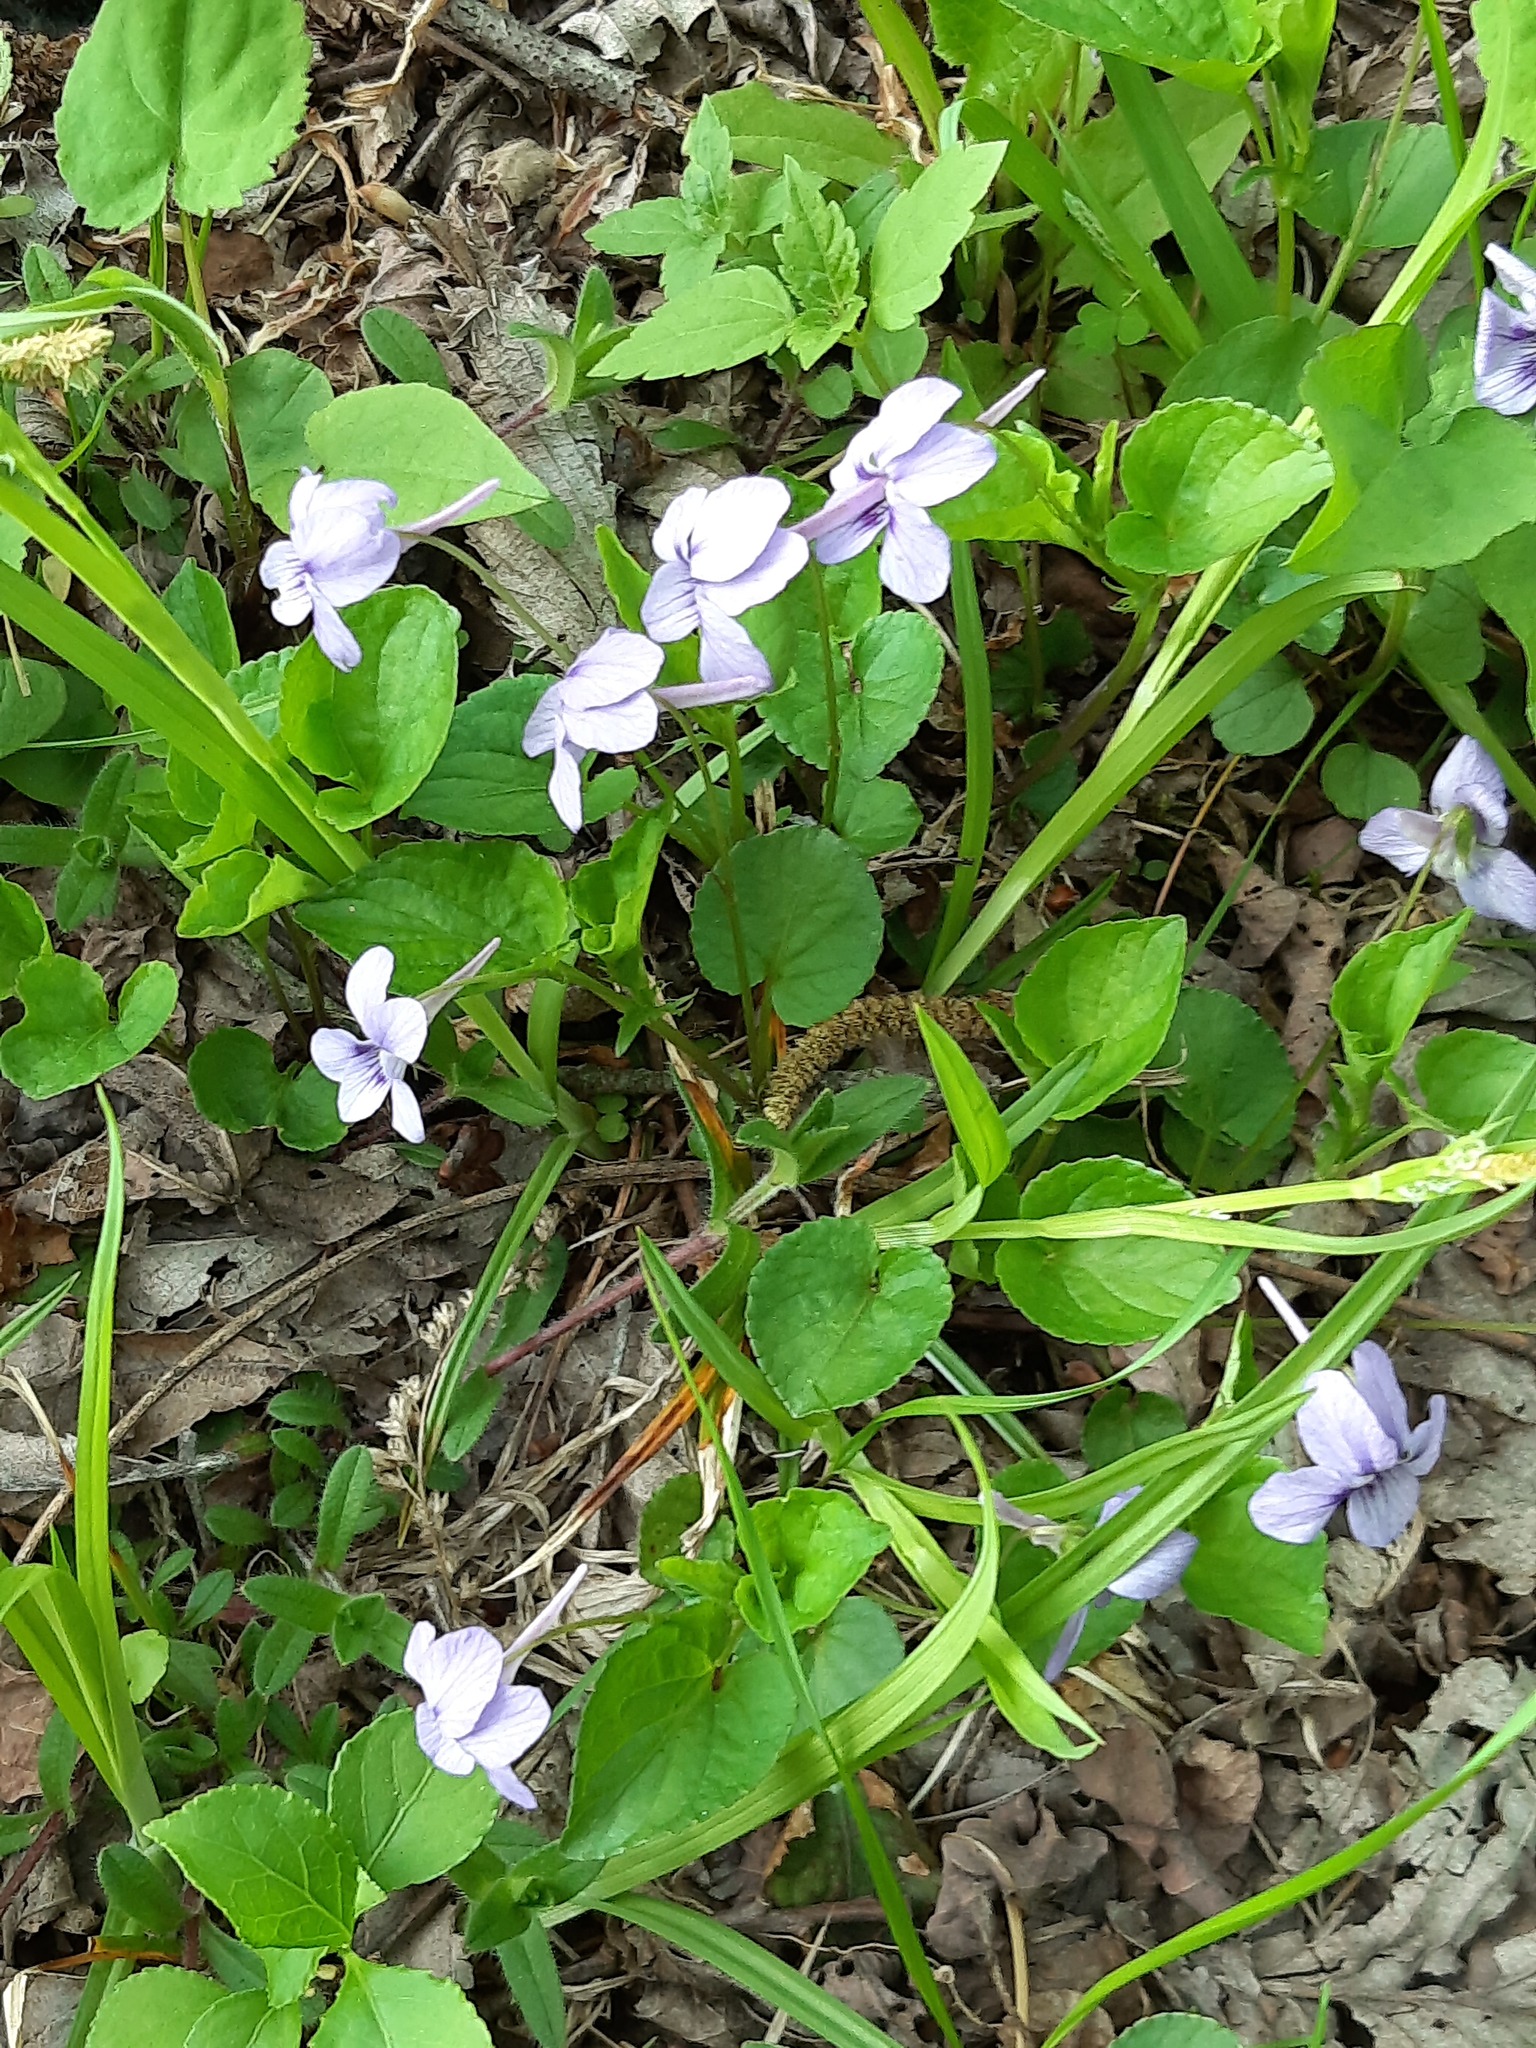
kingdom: Plantae
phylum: Tracheophyta
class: Magnoliopsida
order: Malpighiales
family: Violaceae
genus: Viola
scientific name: Viola rostrata
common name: Long-spur violet
